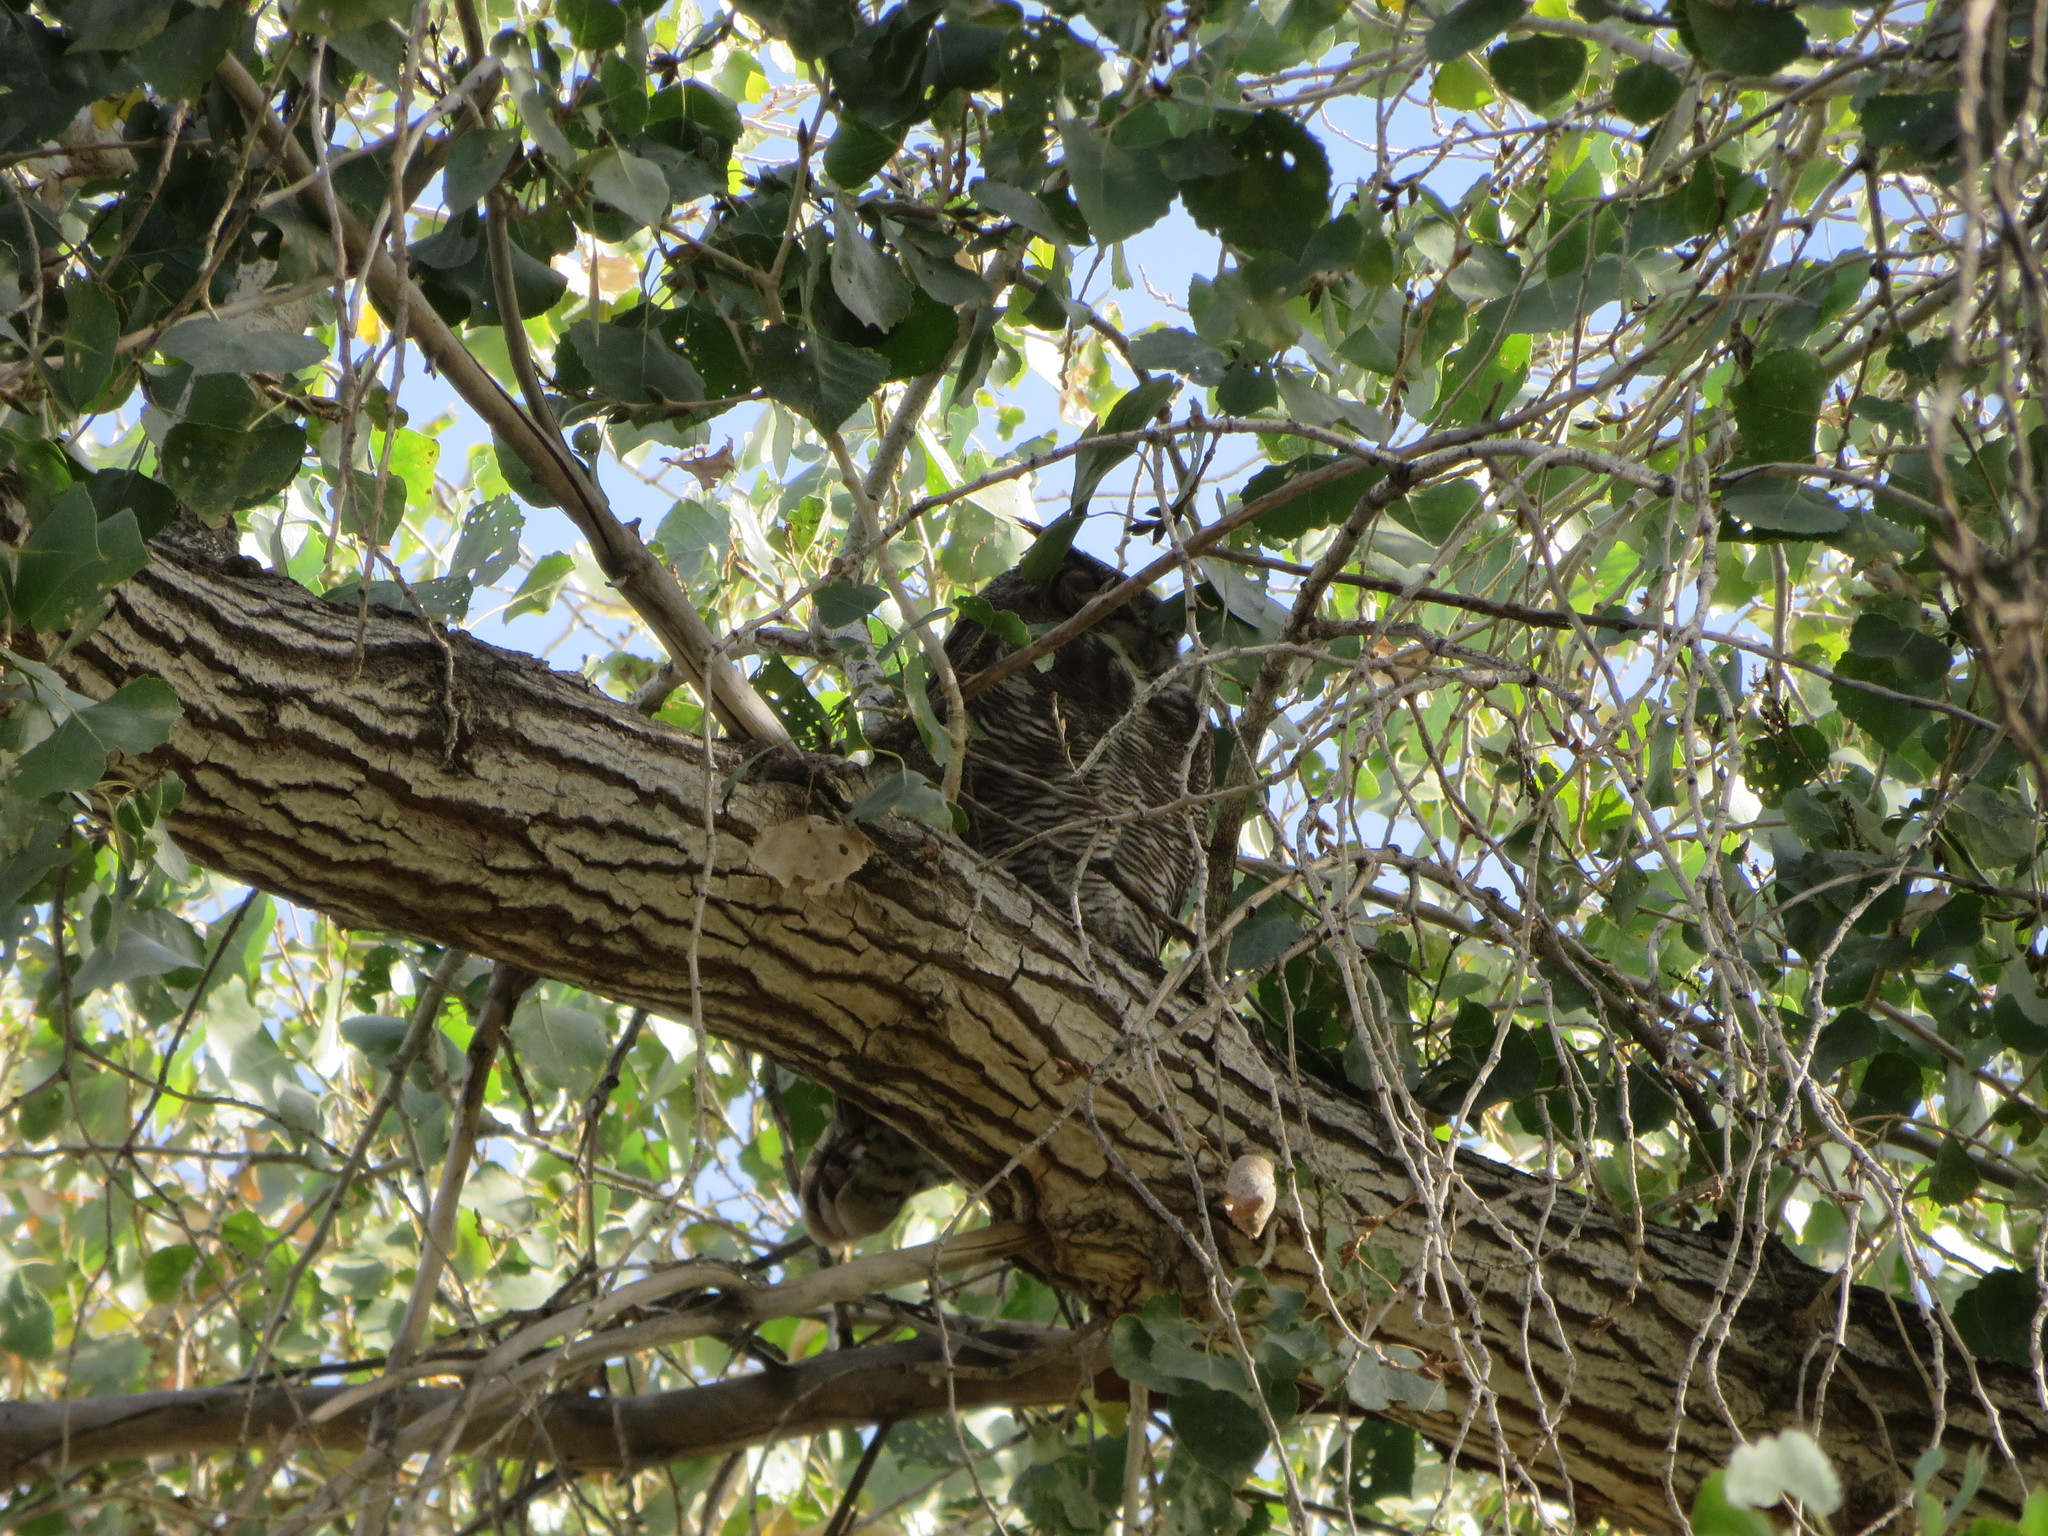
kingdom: Animalia
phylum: Chordata
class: Aves
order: Strigiformes
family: Strigidae
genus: Bubo
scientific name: Bubo virginianus
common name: Great horned owl
